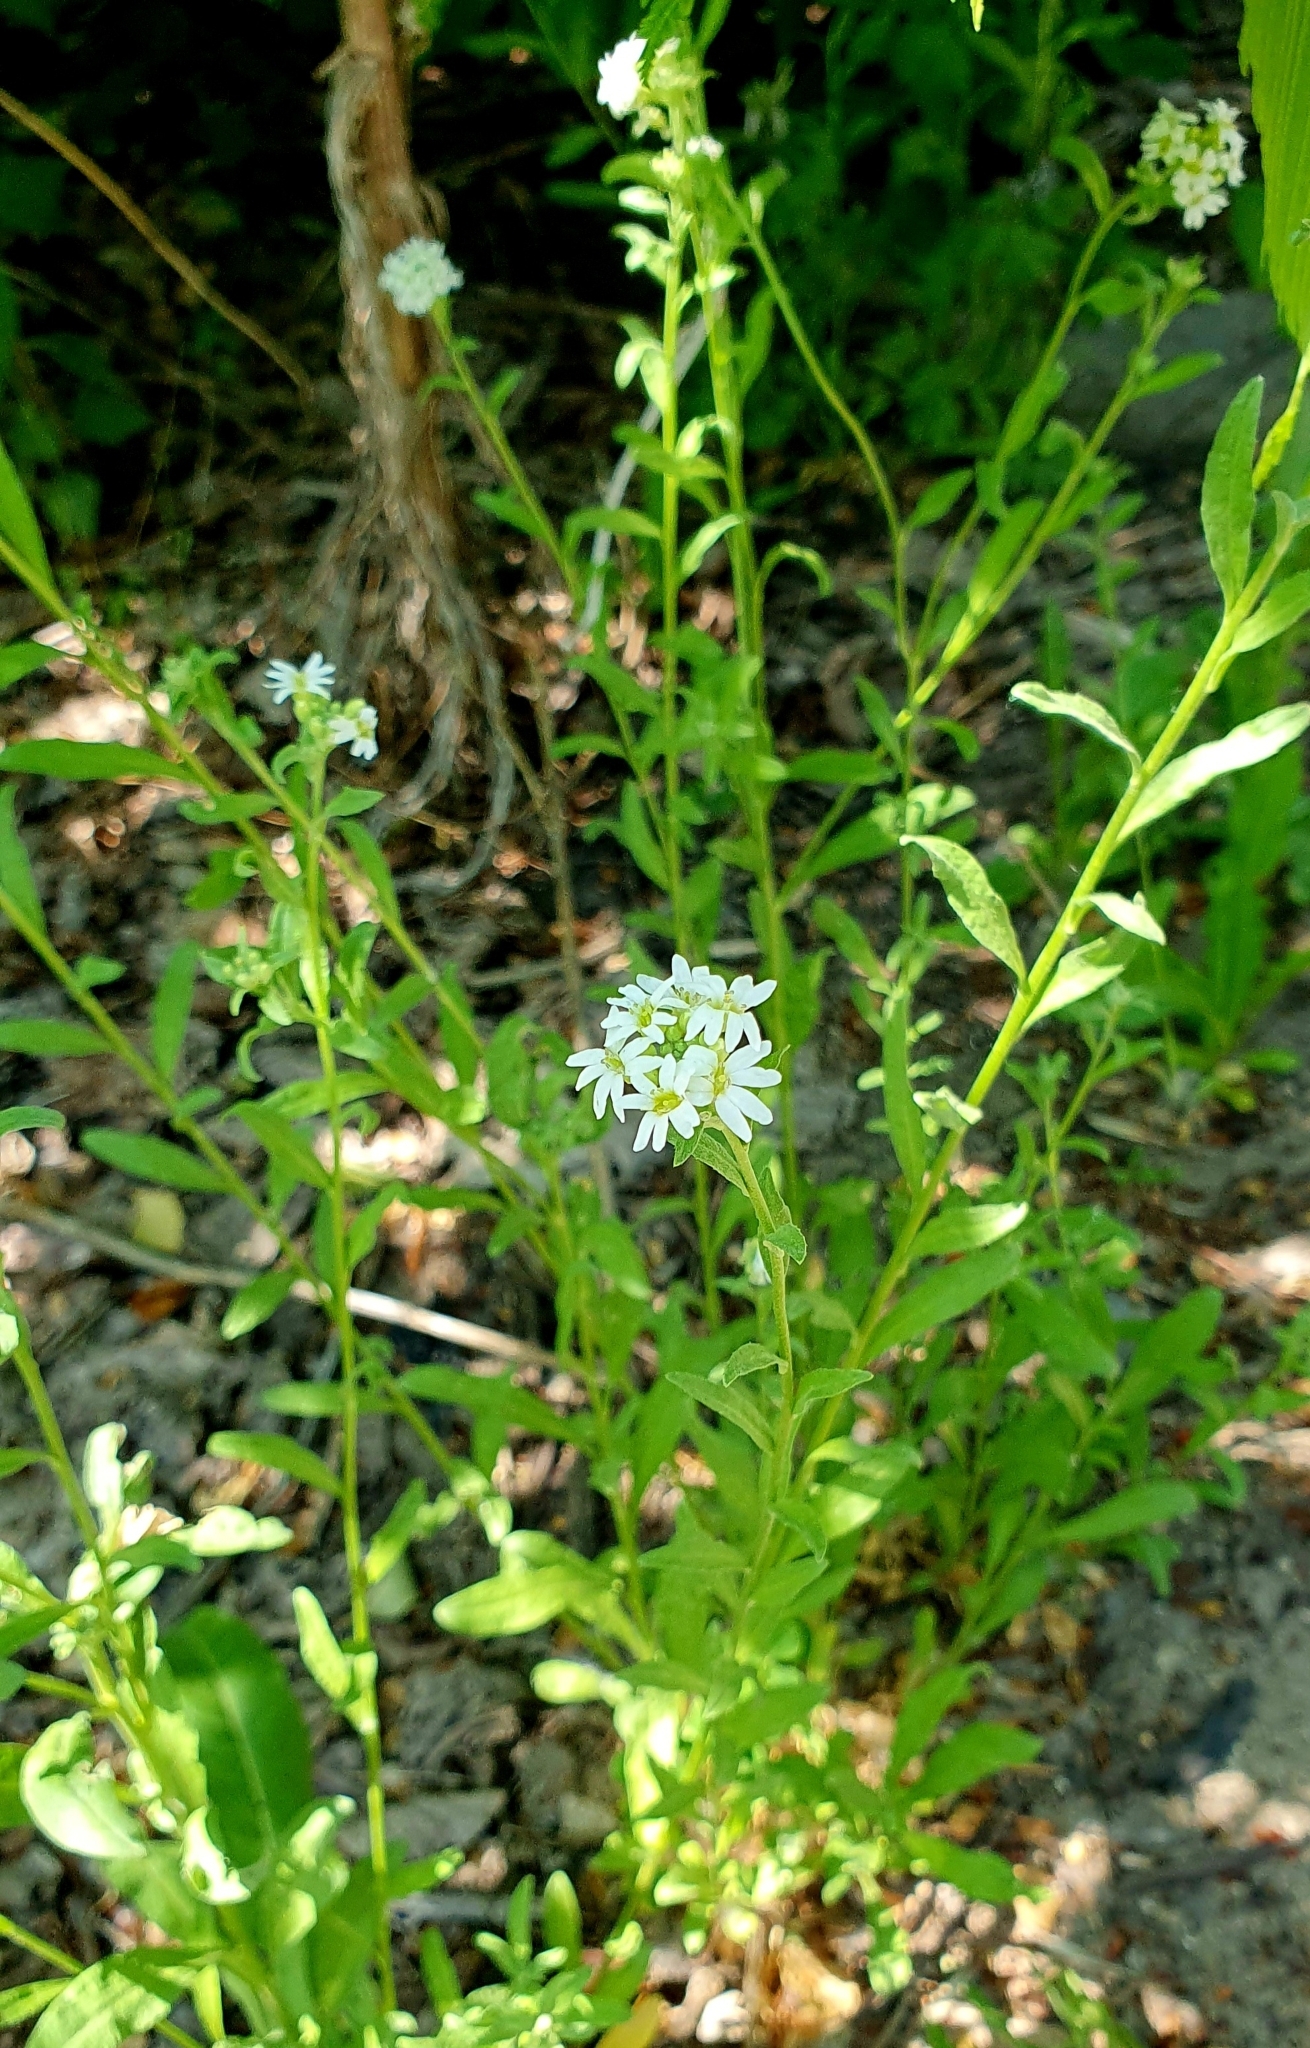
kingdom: Plantae
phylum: Tracheophyta
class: Magnoliopsida
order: Brassicales
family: Brassicaceae
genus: Berteroa
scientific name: Berteroa incana
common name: Hoary alison
